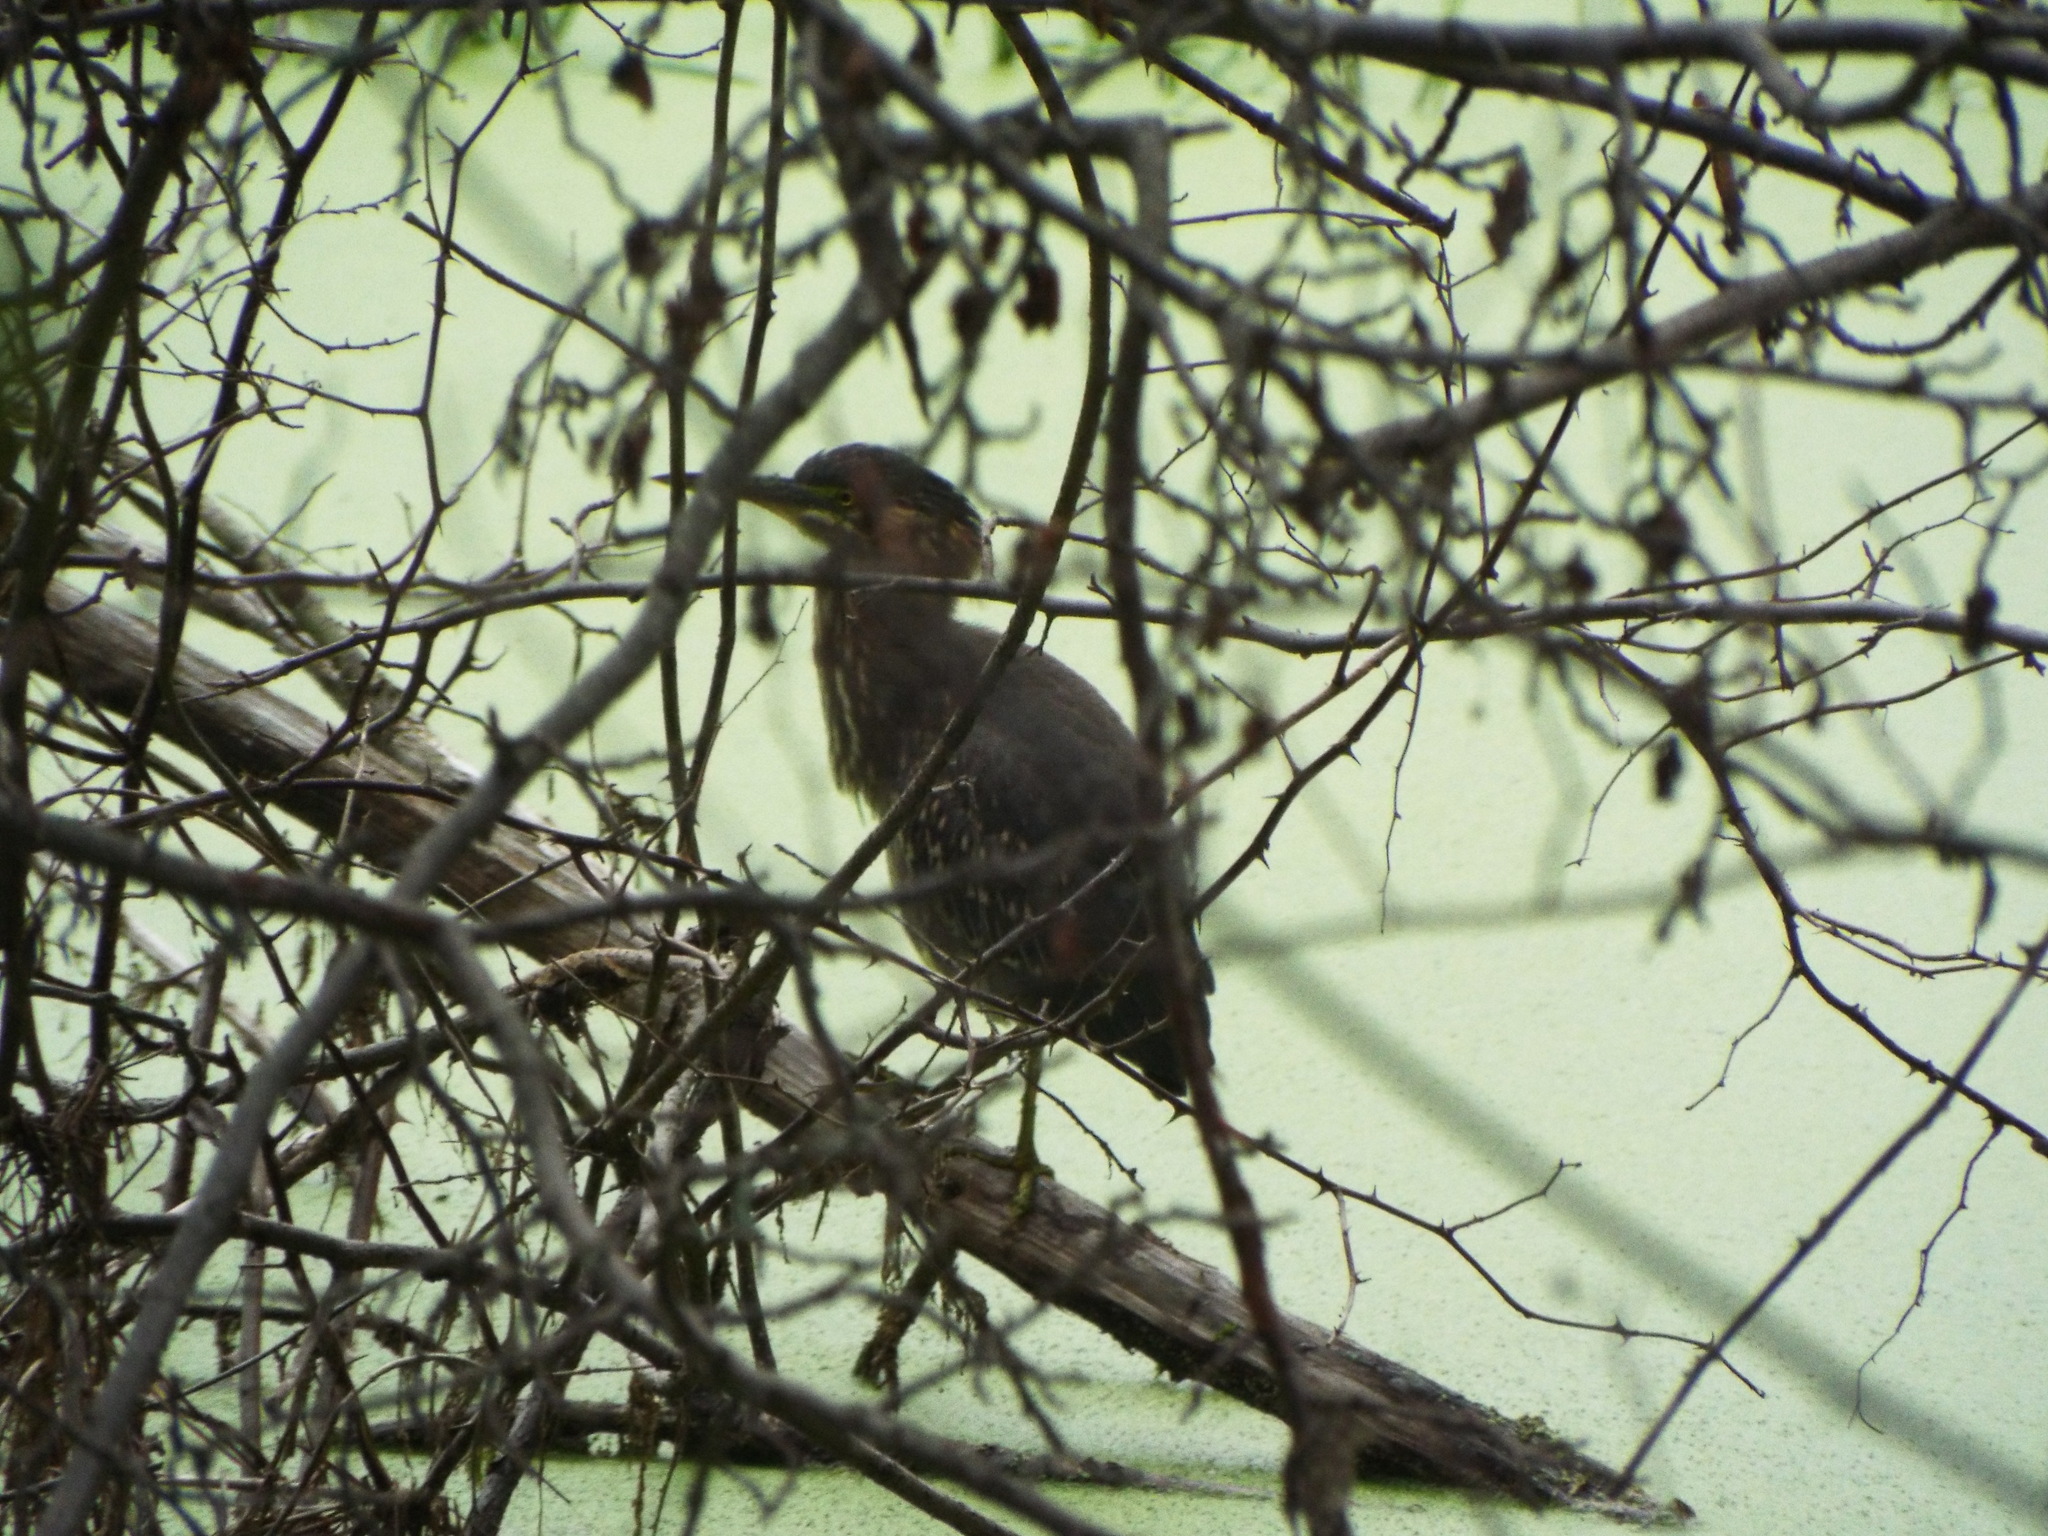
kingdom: Animalia
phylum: Chordata
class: Aves
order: Pelecaniformes
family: Ardeidae
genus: Butorides
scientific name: Butorides virescens
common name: Green heron
